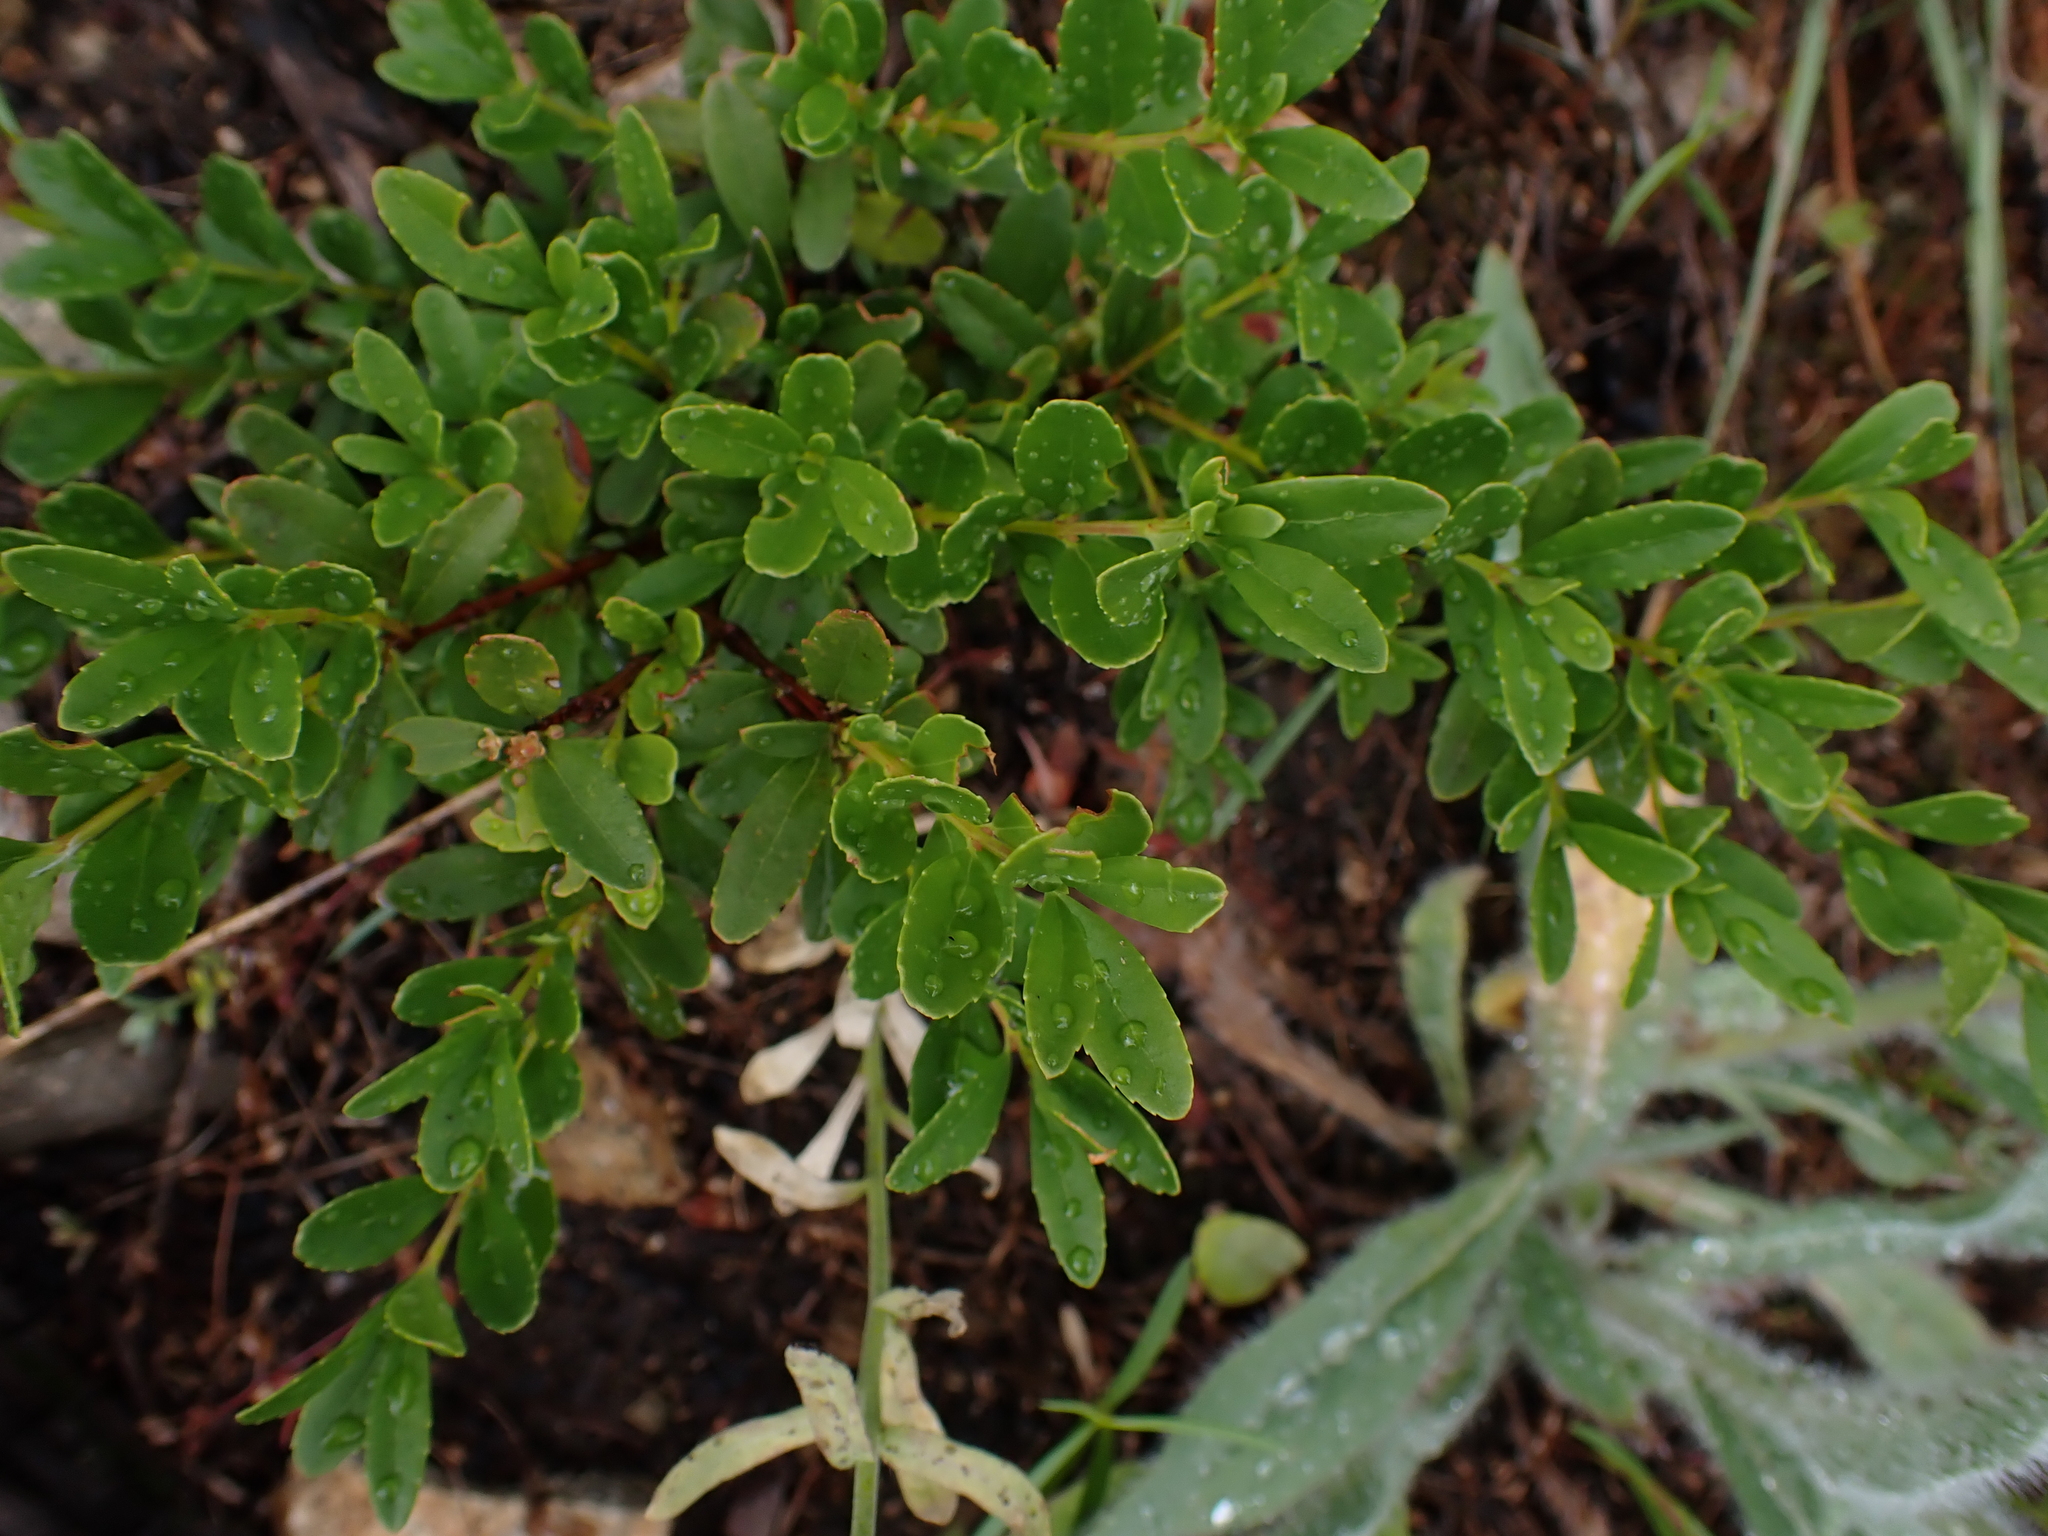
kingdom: Plantae
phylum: Tracheophyta
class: Magnoliopsida
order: Celastrales
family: Celastraceae
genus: Paxistima
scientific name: Paxistima myrsinites
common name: Mountain-lover
